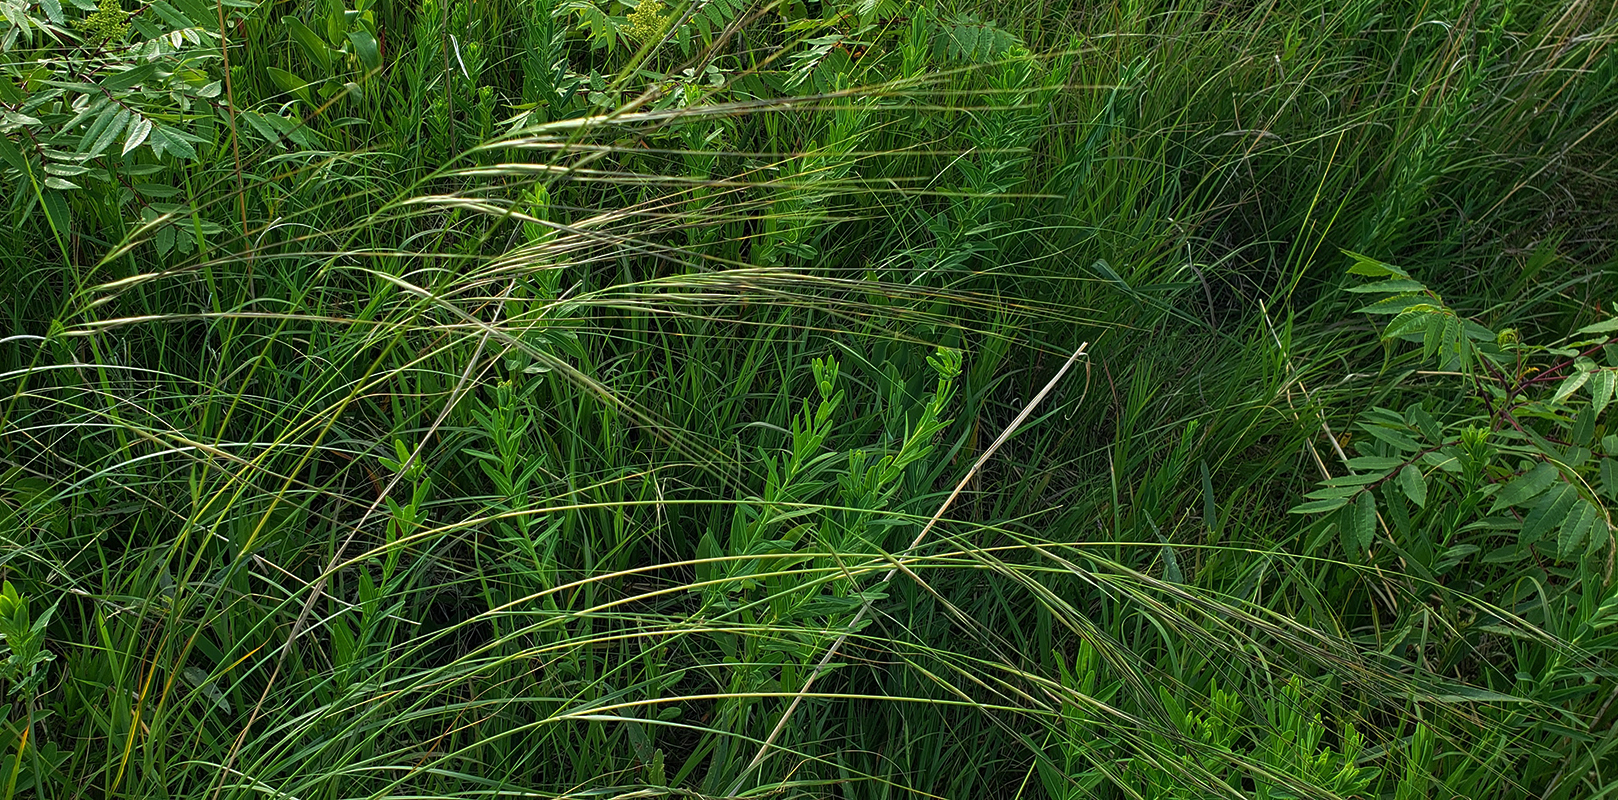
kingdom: Plantae
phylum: Tracheophyta
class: Liliopsida
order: Poales
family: Poaceae
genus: Hesperostipa
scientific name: Hesperostipa spartea
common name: Porcupine grass
